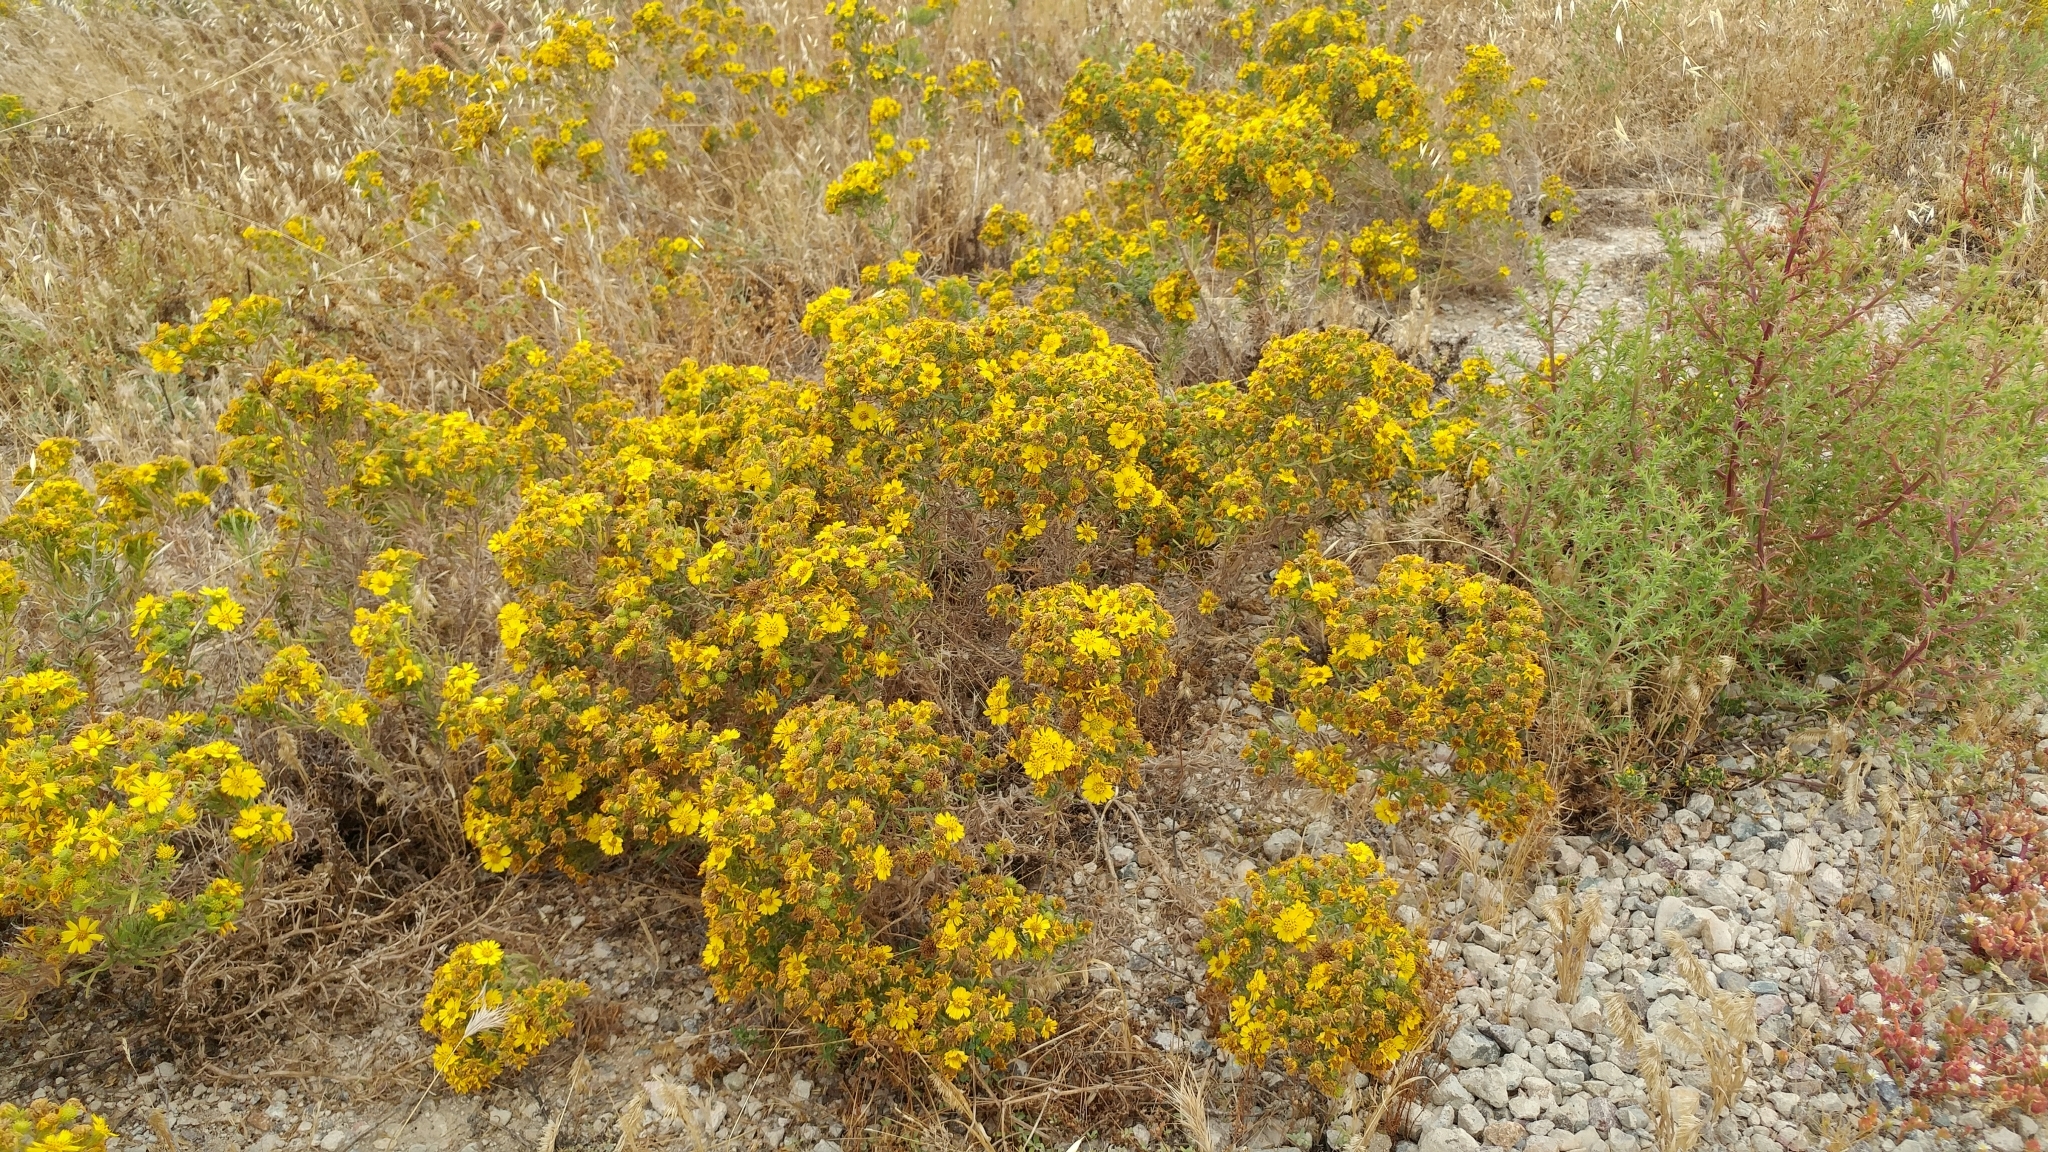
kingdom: Plantae
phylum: Tracheophyta
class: Magnoliopsida
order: Asterales
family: Asteraceae
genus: Deinandra
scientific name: Deinandra clementina
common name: Island tarplant
